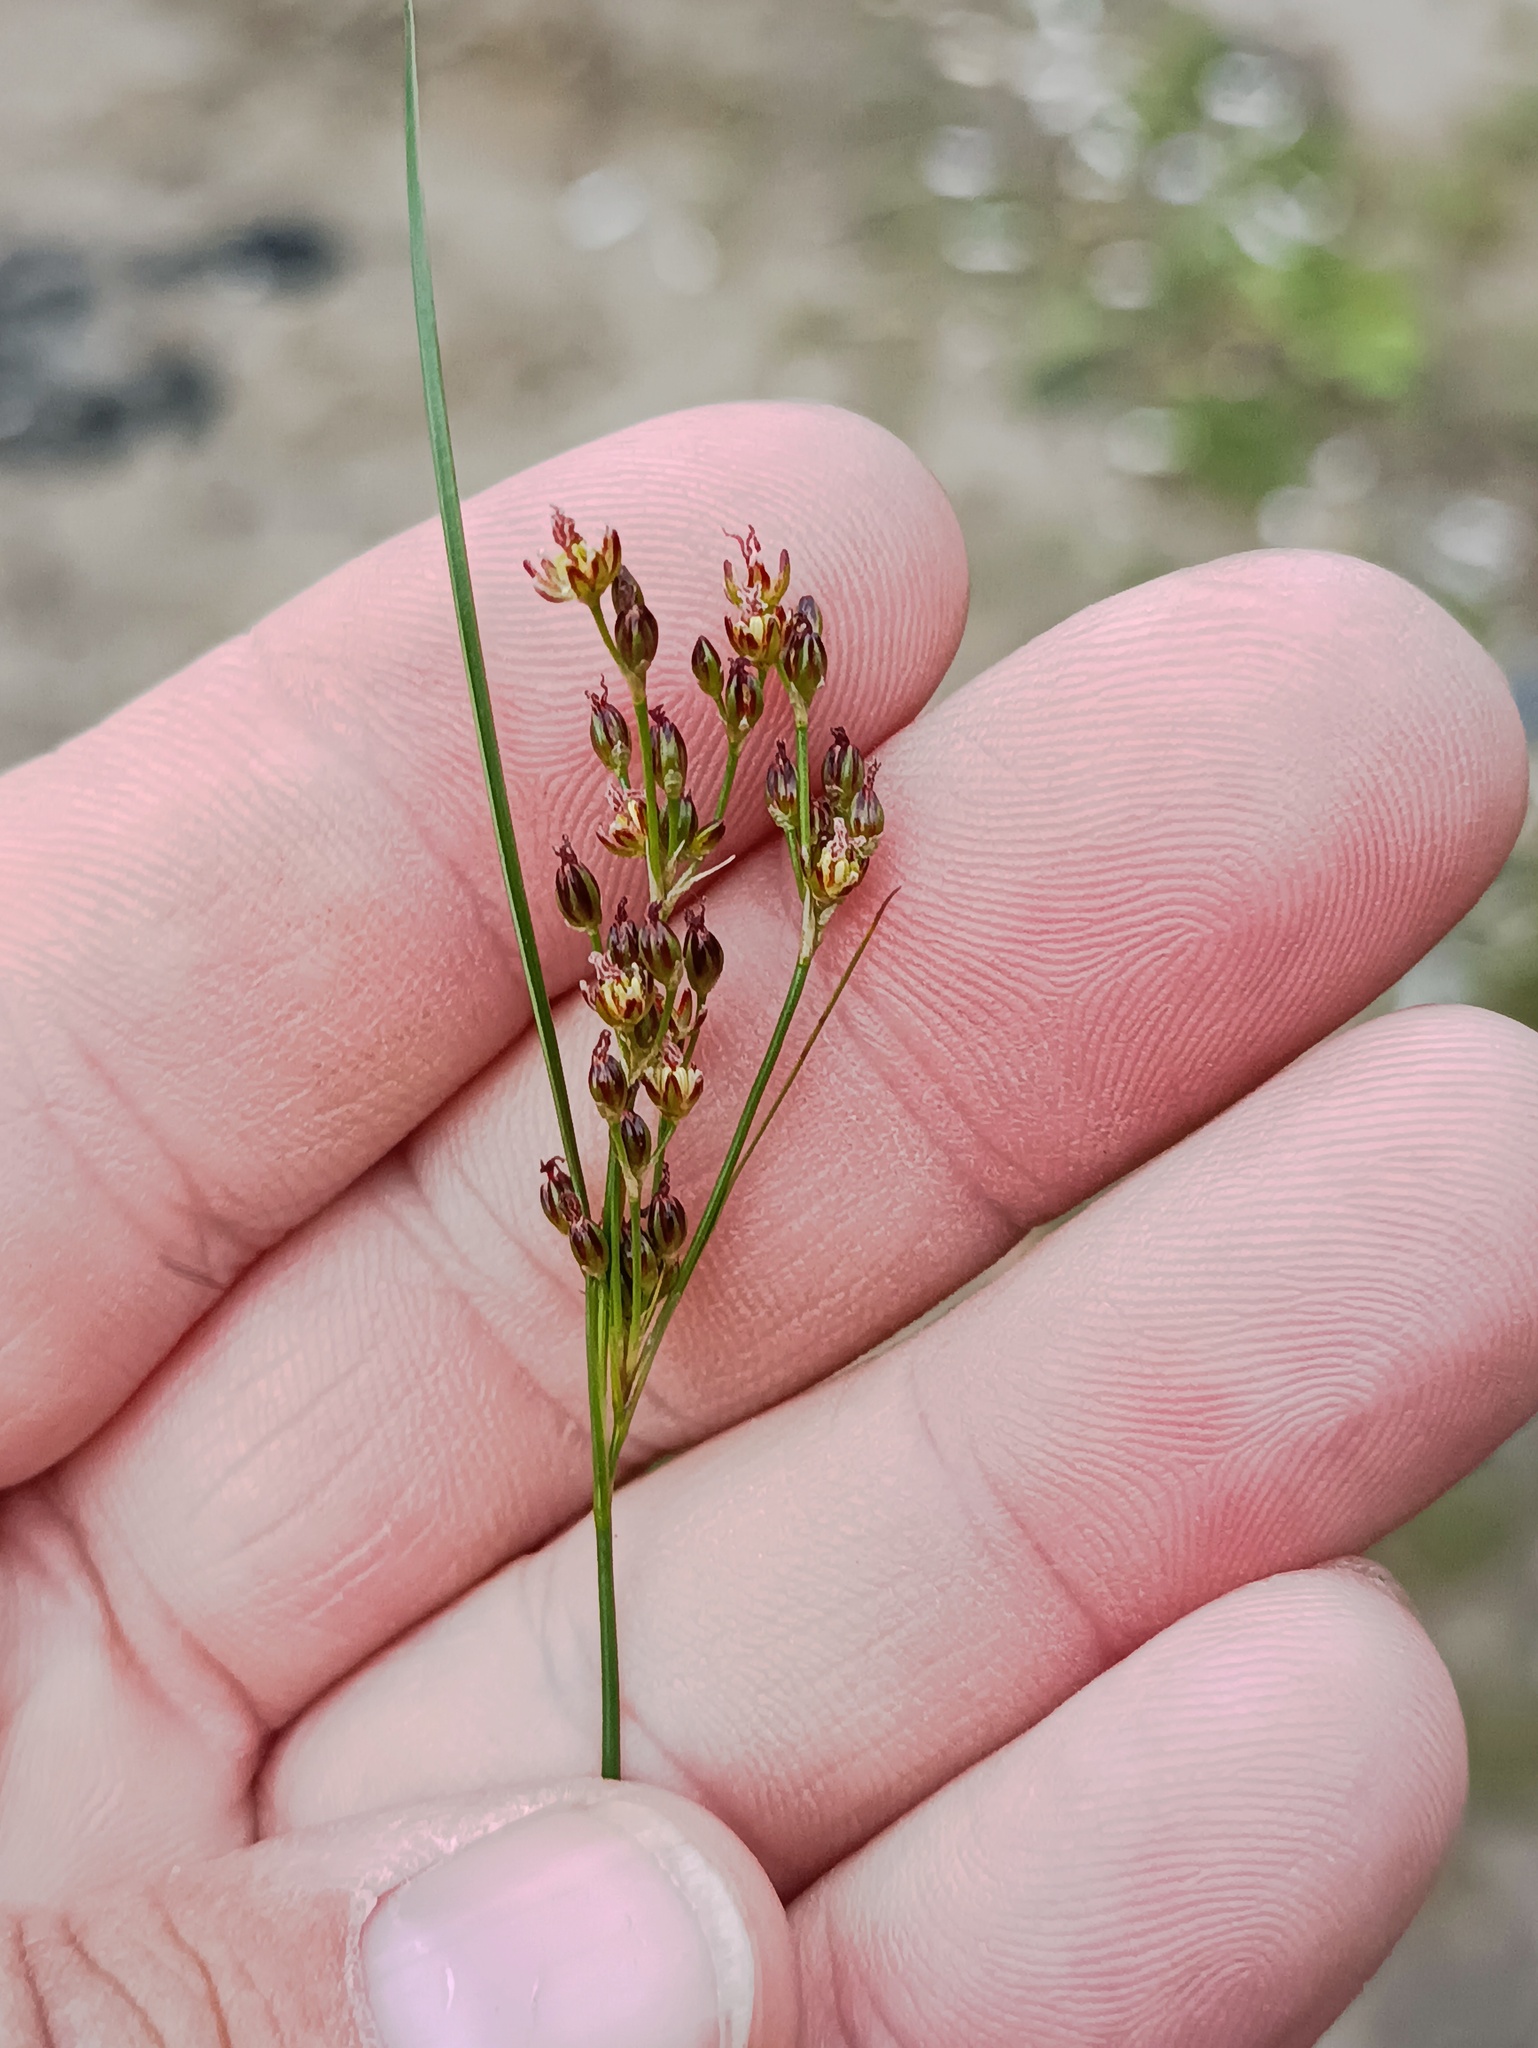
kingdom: Plantae
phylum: Tracheophyta
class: Liliopsida
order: Poales
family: Juncaceae
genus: Juncus
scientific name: Juncus compressus
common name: Round-fruited rush
